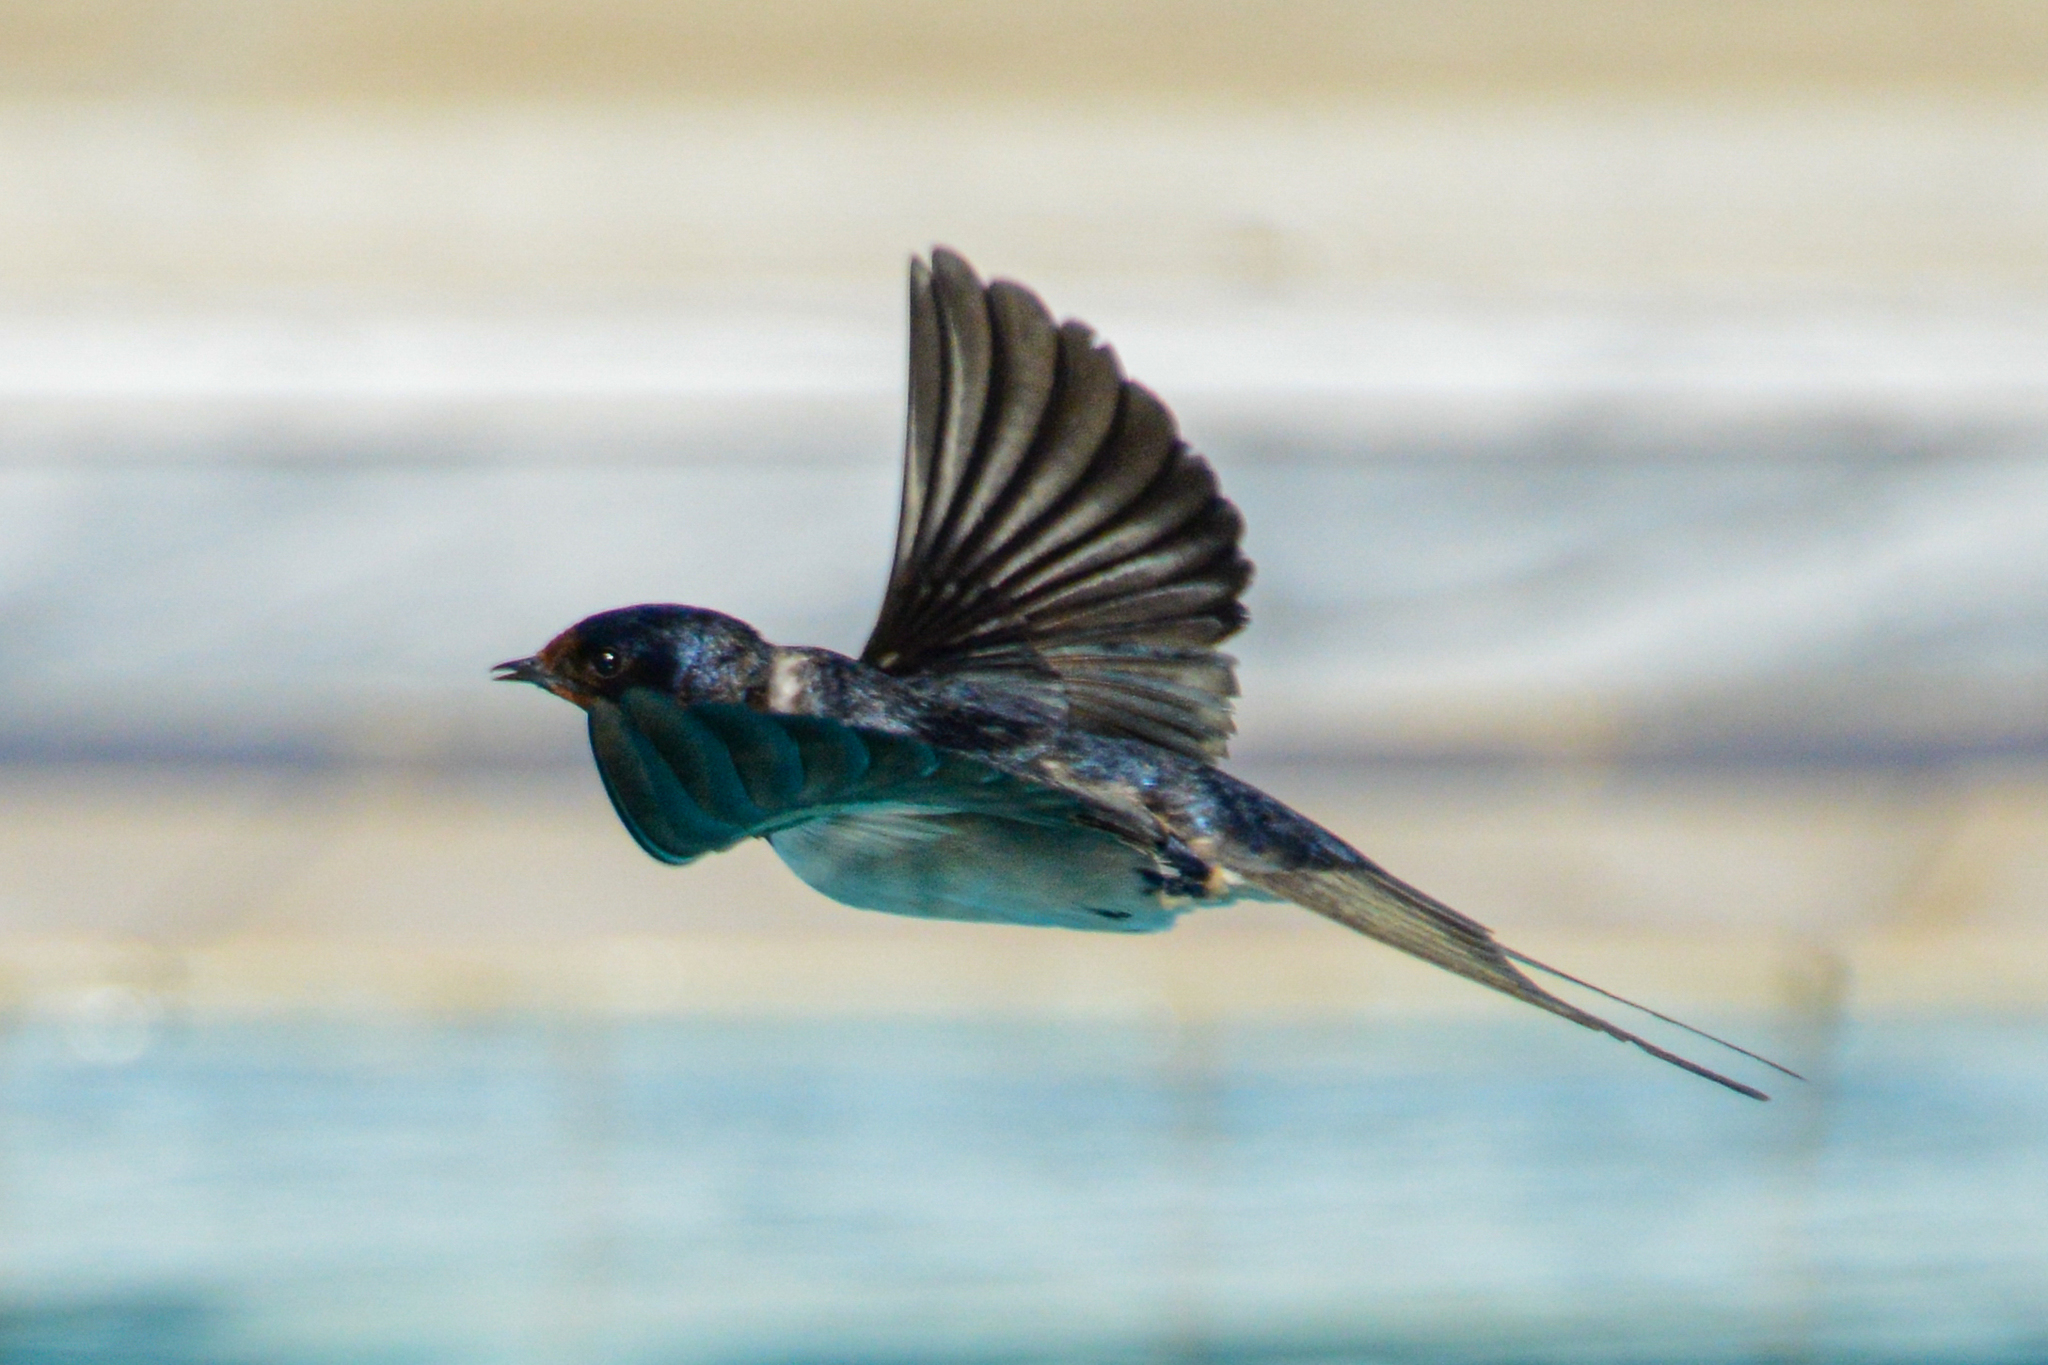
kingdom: Animalia
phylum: Chordata
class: Aves
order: Passeriformes
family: Hirundinidae
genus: Hirundo
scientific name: Hirundo rustica
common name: Barn swallow
